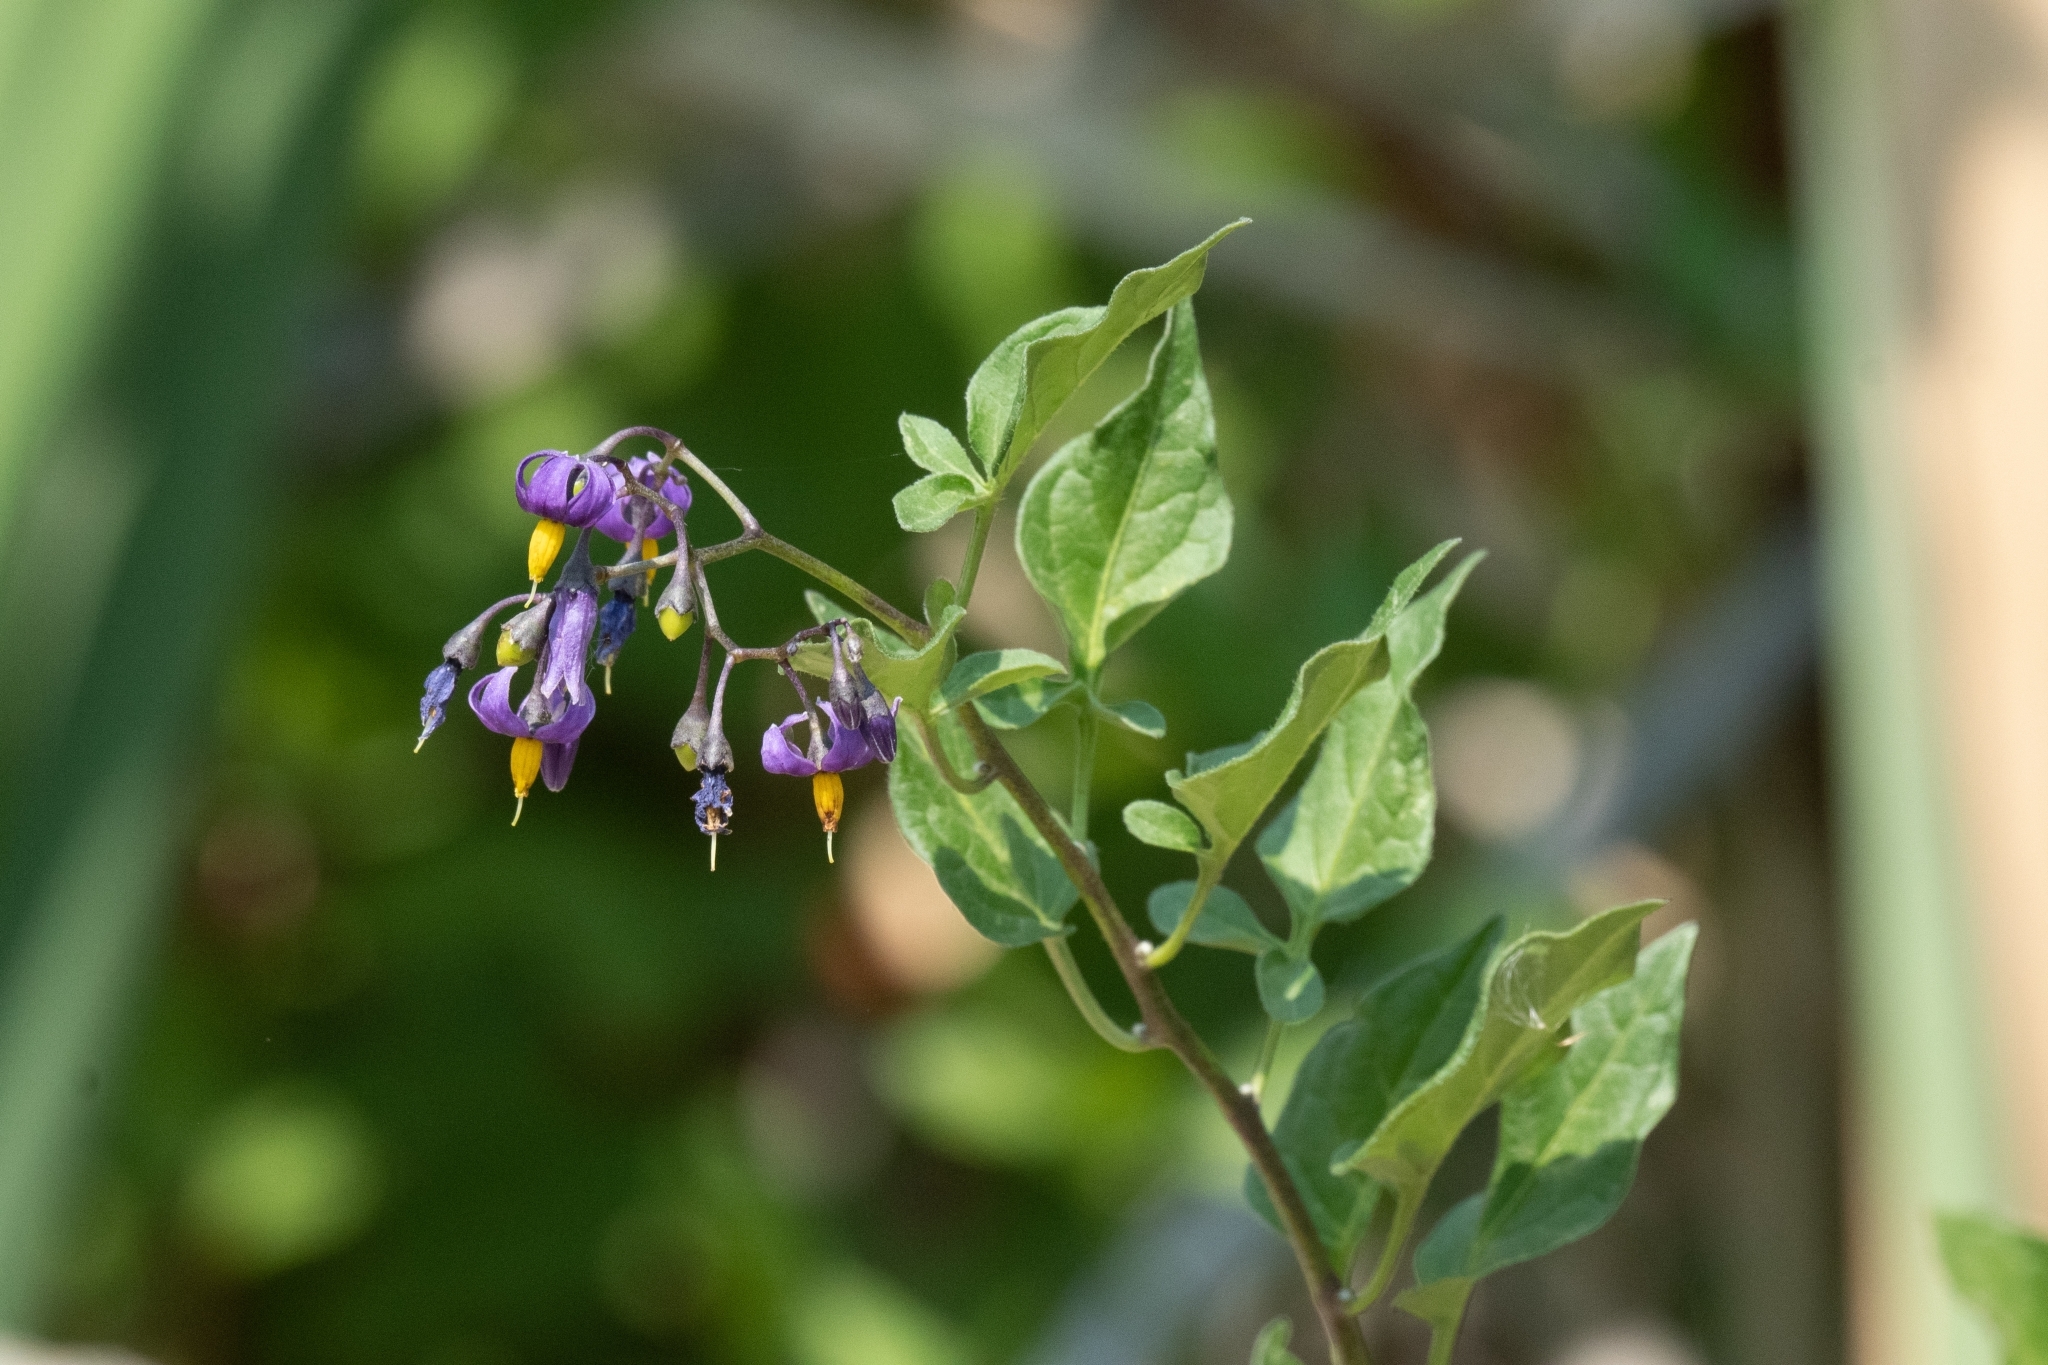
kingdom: Plantae
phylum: Tracheophyta
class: Magnoliopsida
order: Solanales
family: Solanaceae
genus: Solanum
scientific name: Solanum dulcamara
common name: Climbing nightshade
